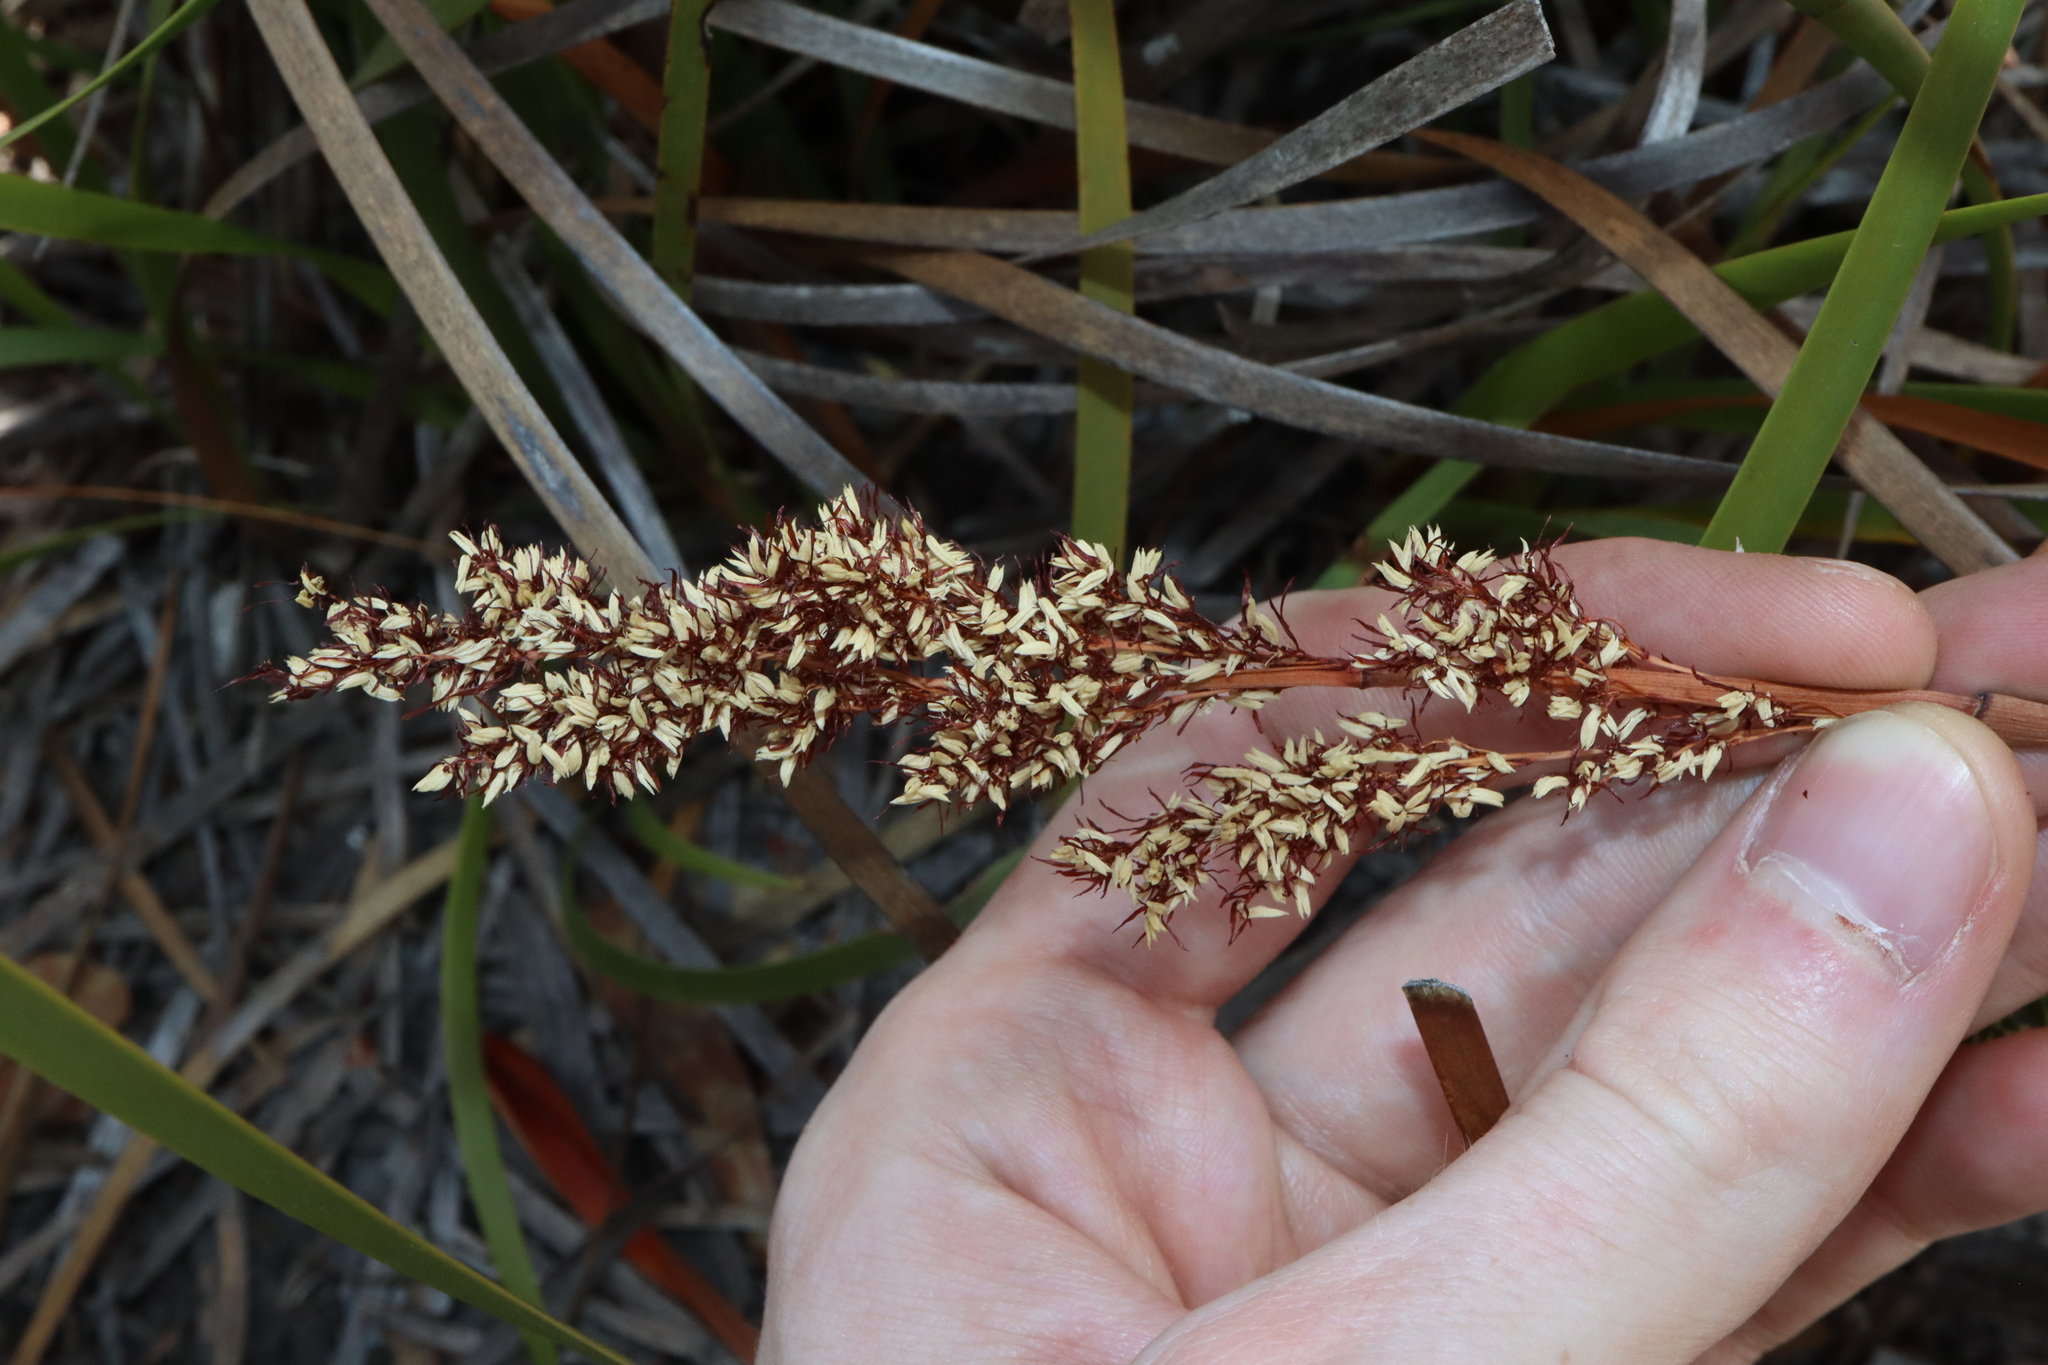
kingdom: Plantae
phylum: Tracheophyta
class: Liliopsida
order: Poales
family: Restionaceae
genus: Anarthria
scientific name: Anarthria scabra
